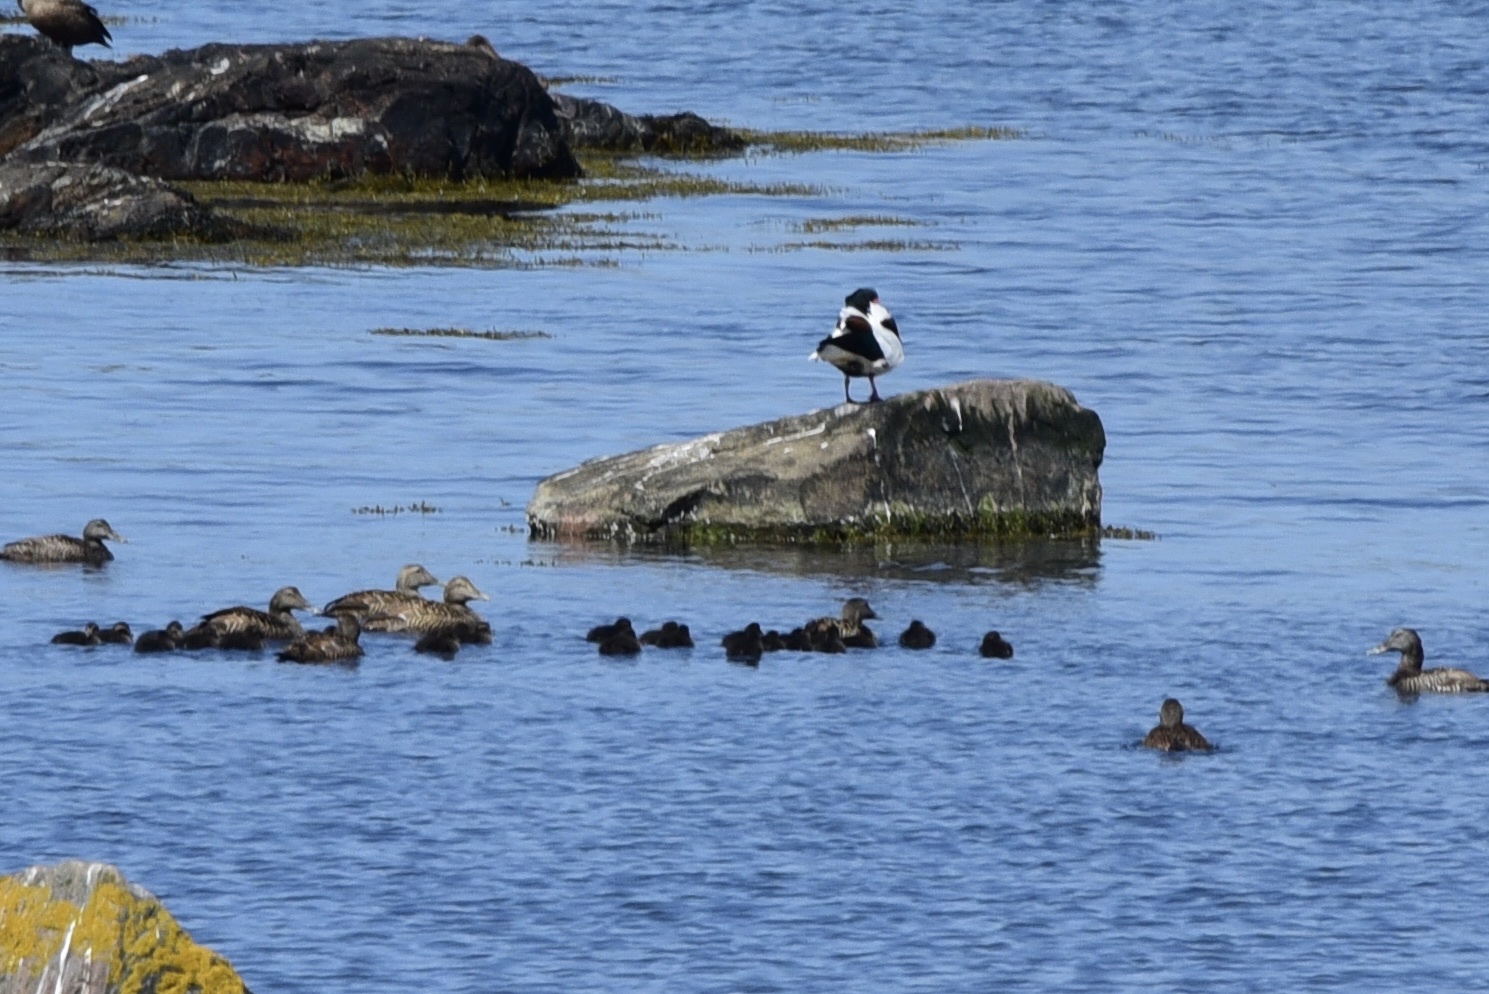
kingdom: Animalia
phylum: Chordata
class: Aves
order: Anseriformes
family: Anatidae
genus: Somateria
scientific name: Somateria mollissima
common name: Common eider
